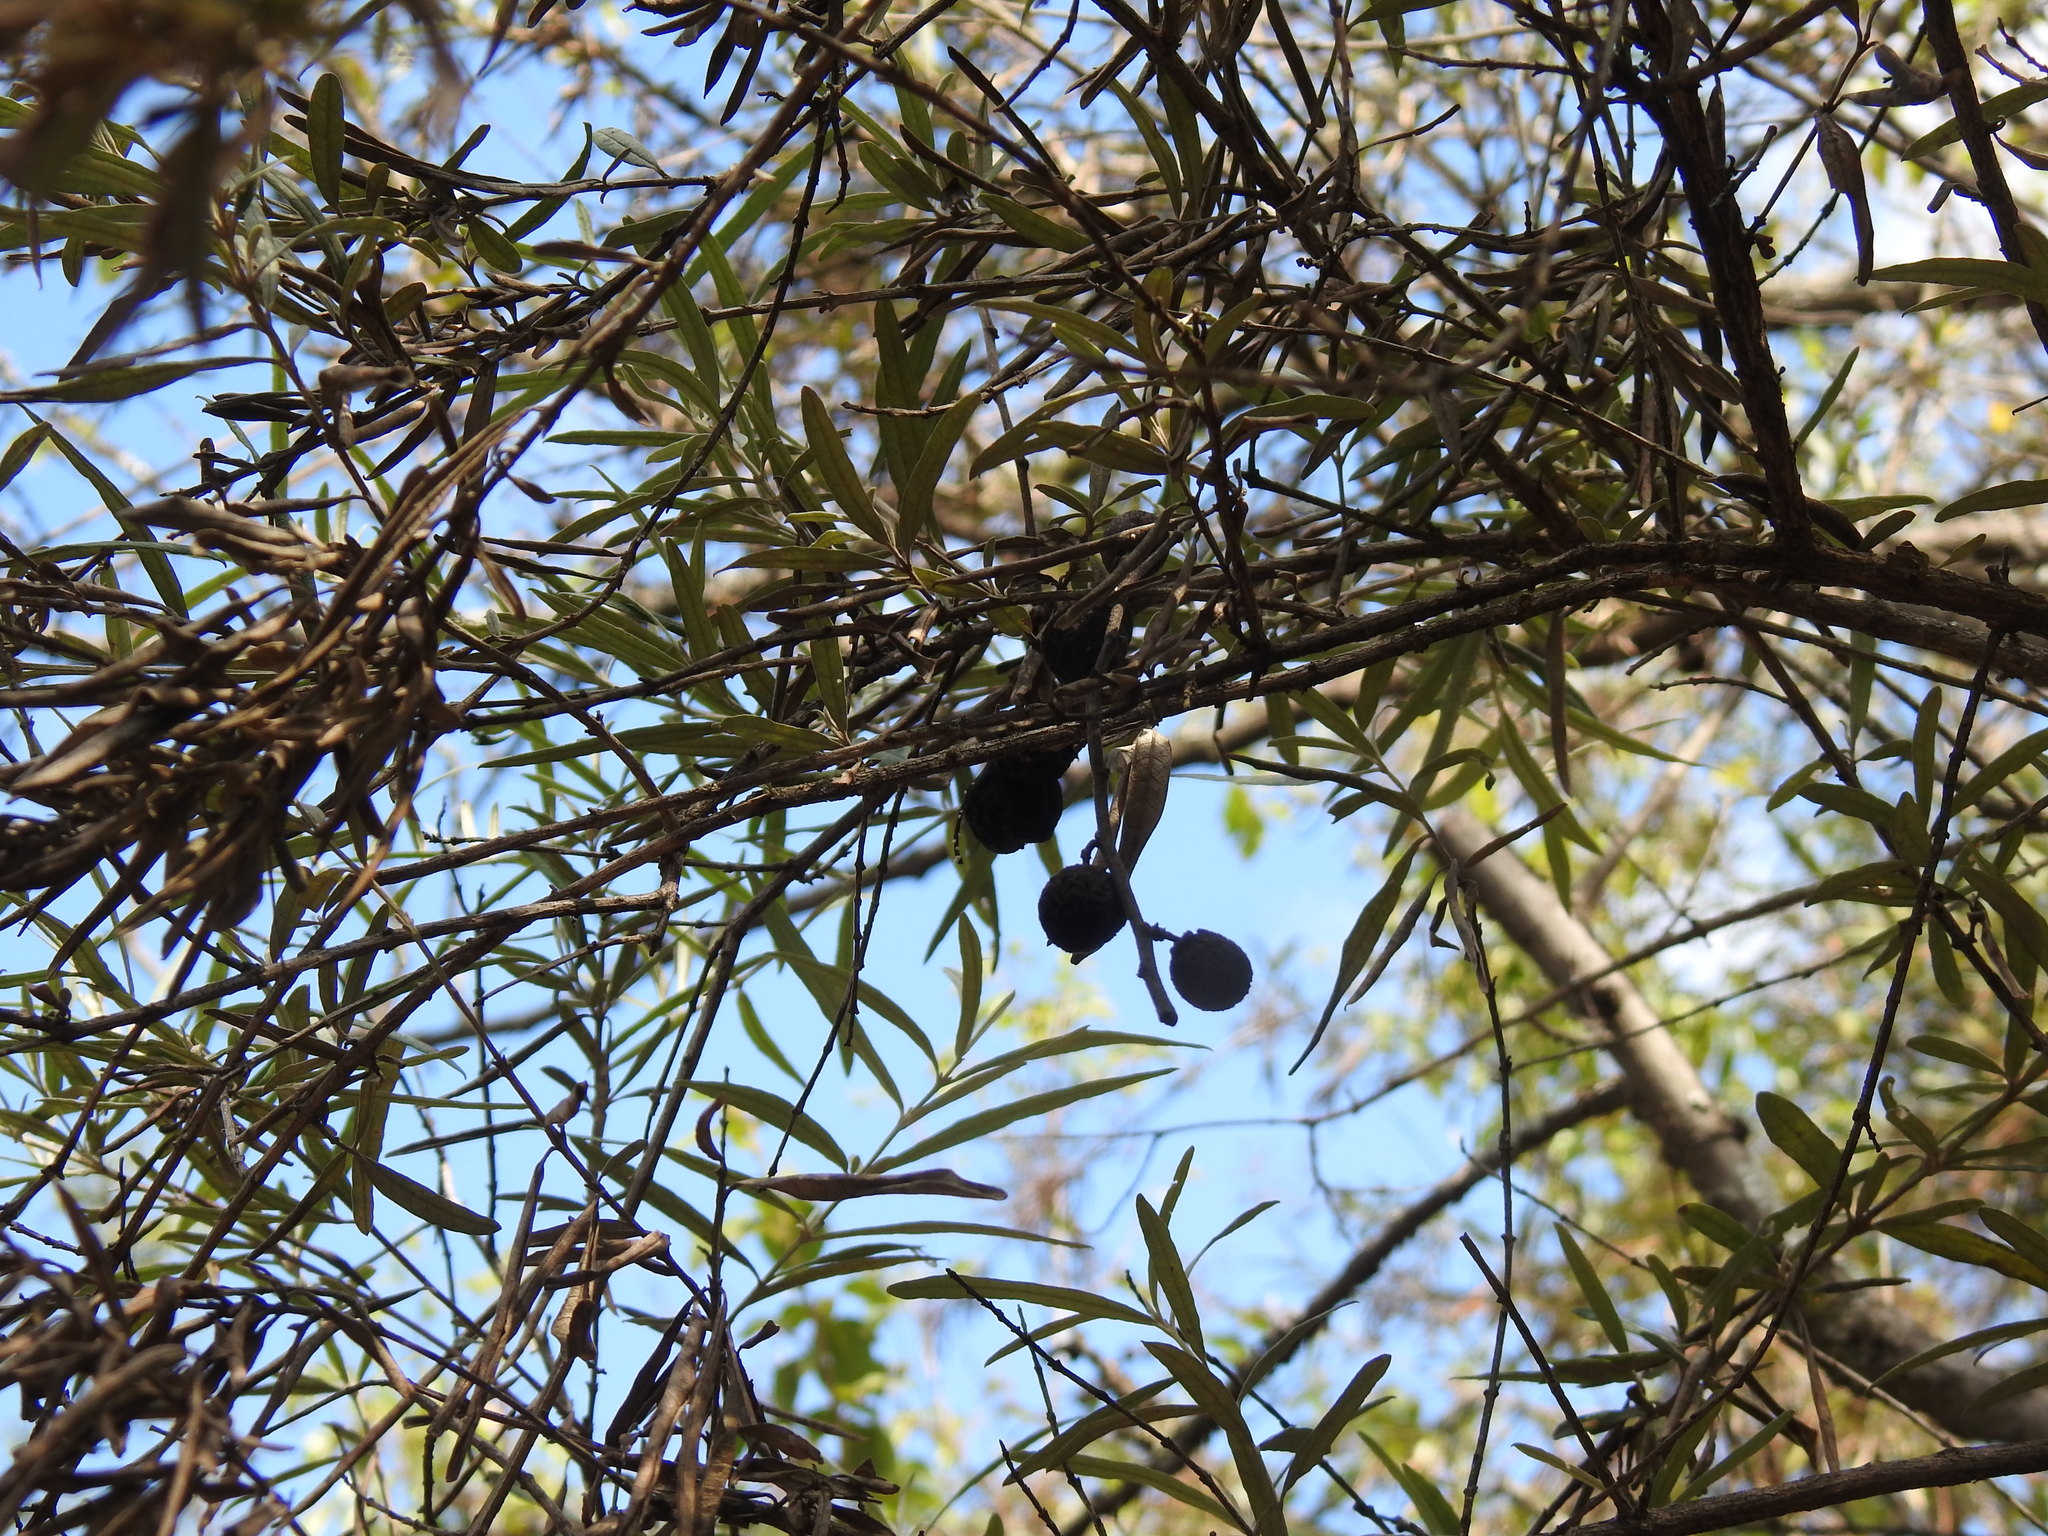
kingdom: Plantae
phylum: Tracheophyta
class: Magnoliopsida
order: Lamiales
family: Oleaceae
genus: Olea
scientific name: Olea europaea
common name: Olive
